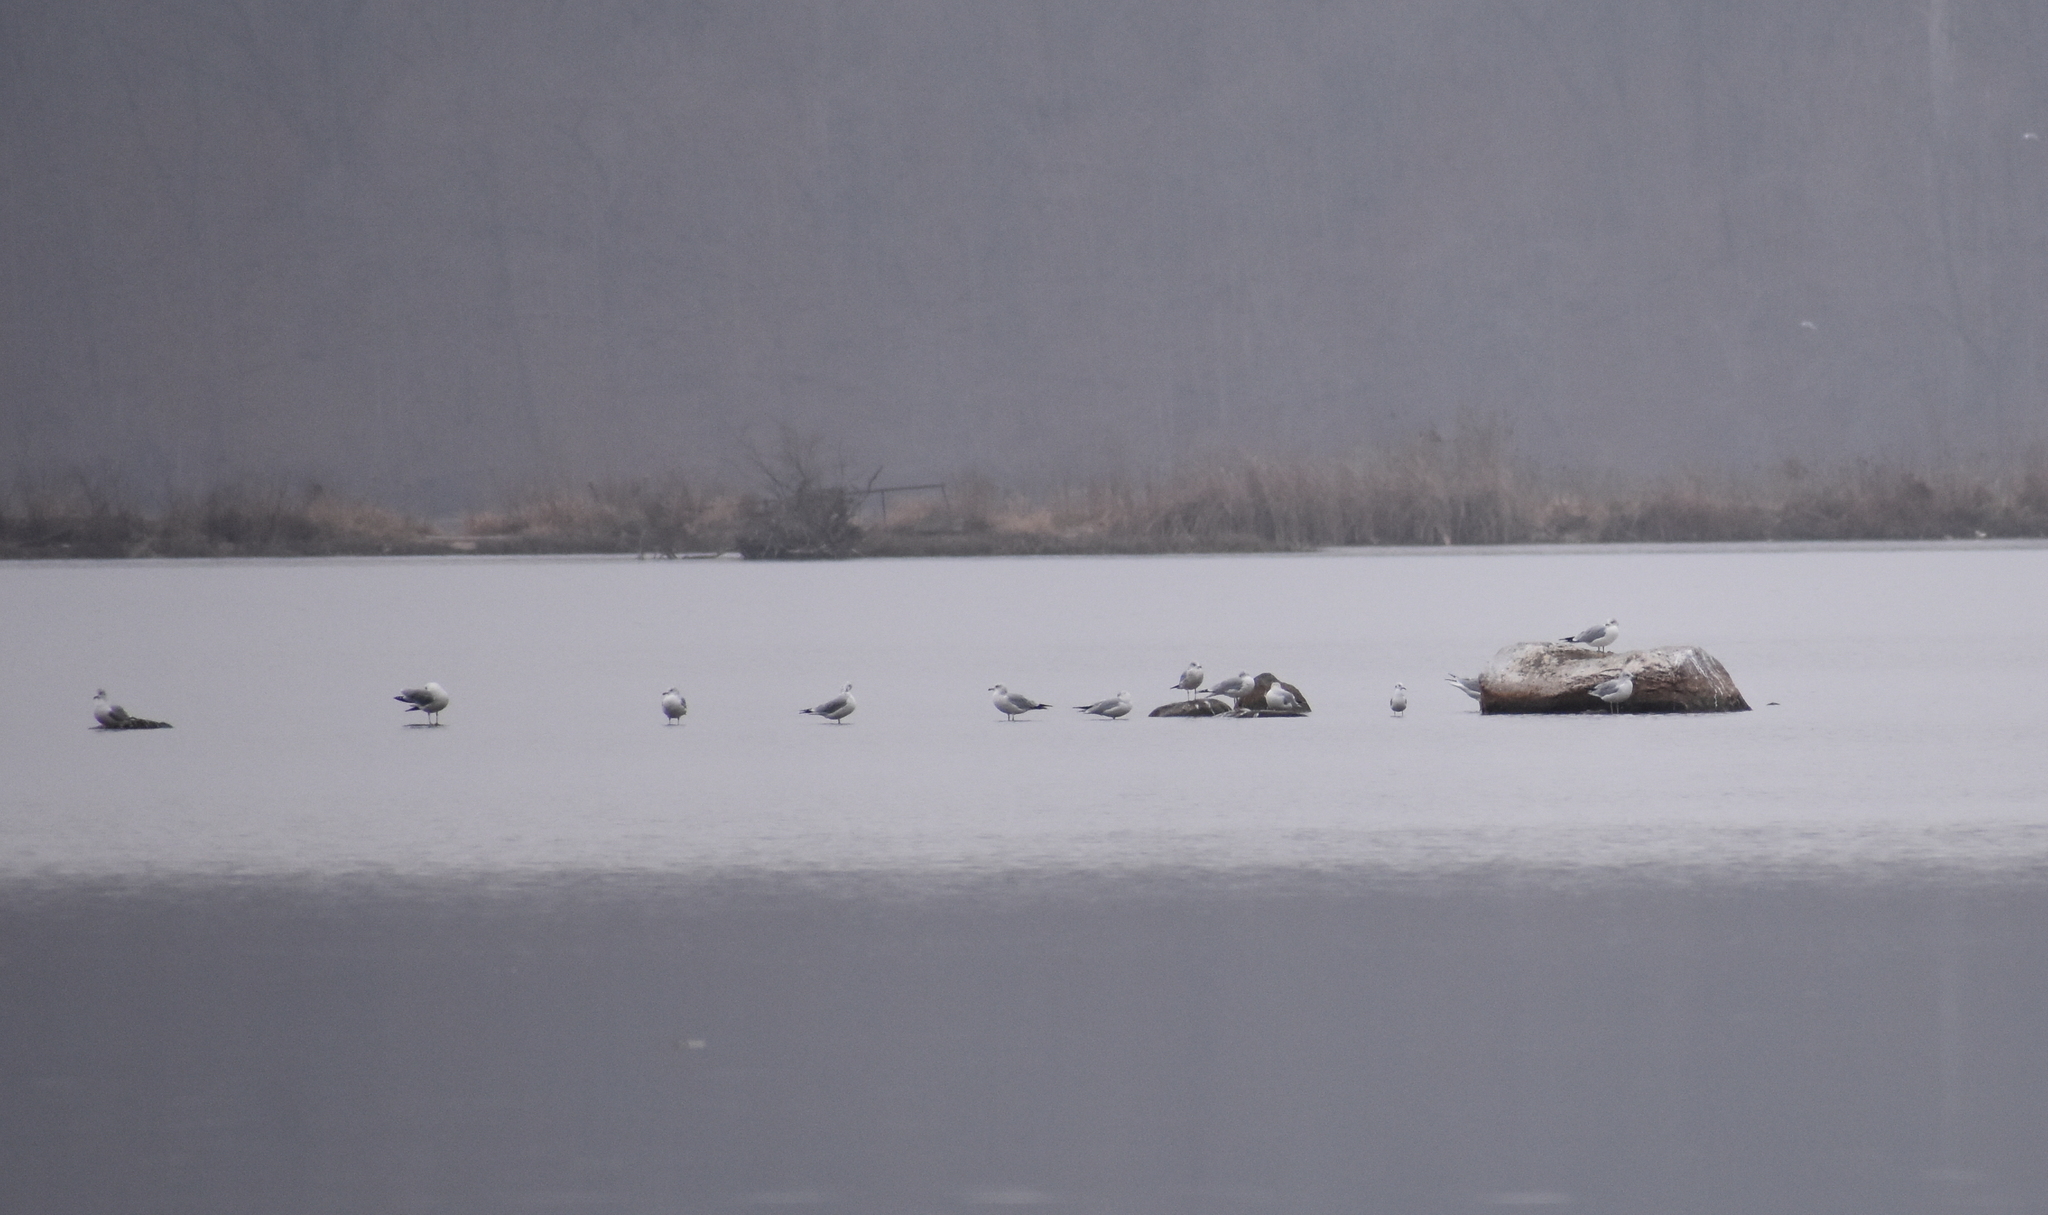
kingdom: Animalia
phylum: Chordata
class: Aves
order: Charadriiformes
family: Laridae
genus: Chroicocephalus
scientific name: Chroicocephalus philadelphia
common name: Bonaparte's gull
